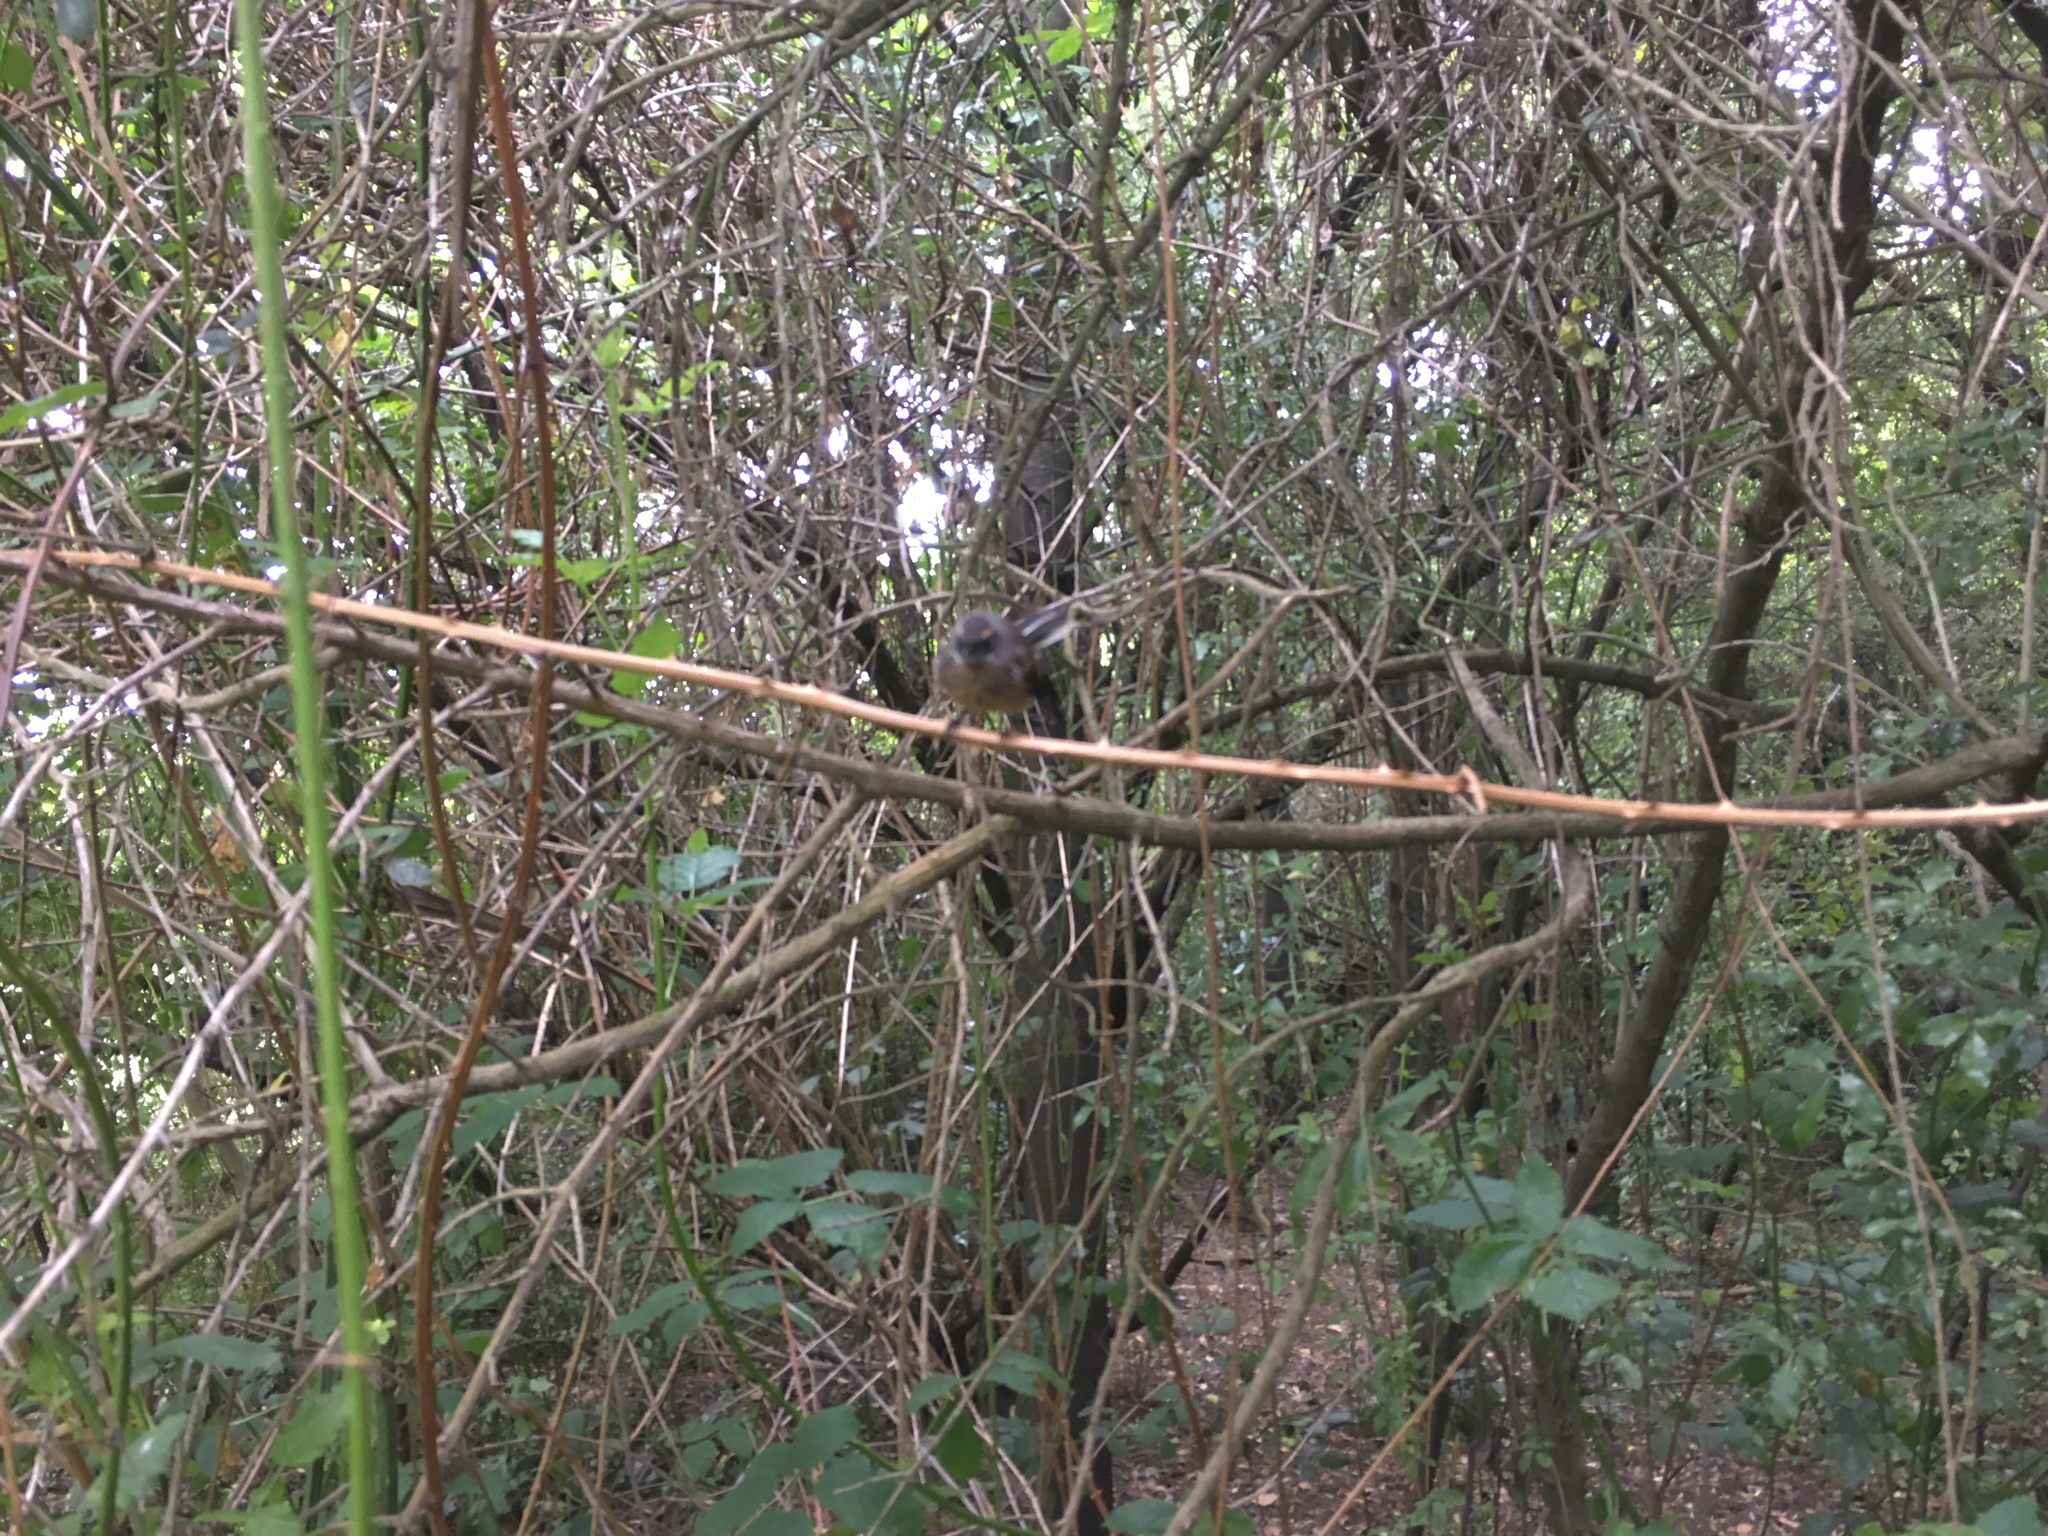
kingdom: Animalia
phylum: Chordata
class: Aves
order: Passeriformes
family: Rhipiduridae
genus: Rhipidura
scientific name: Rhipidura fuliginosa
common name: New zealand fantail
